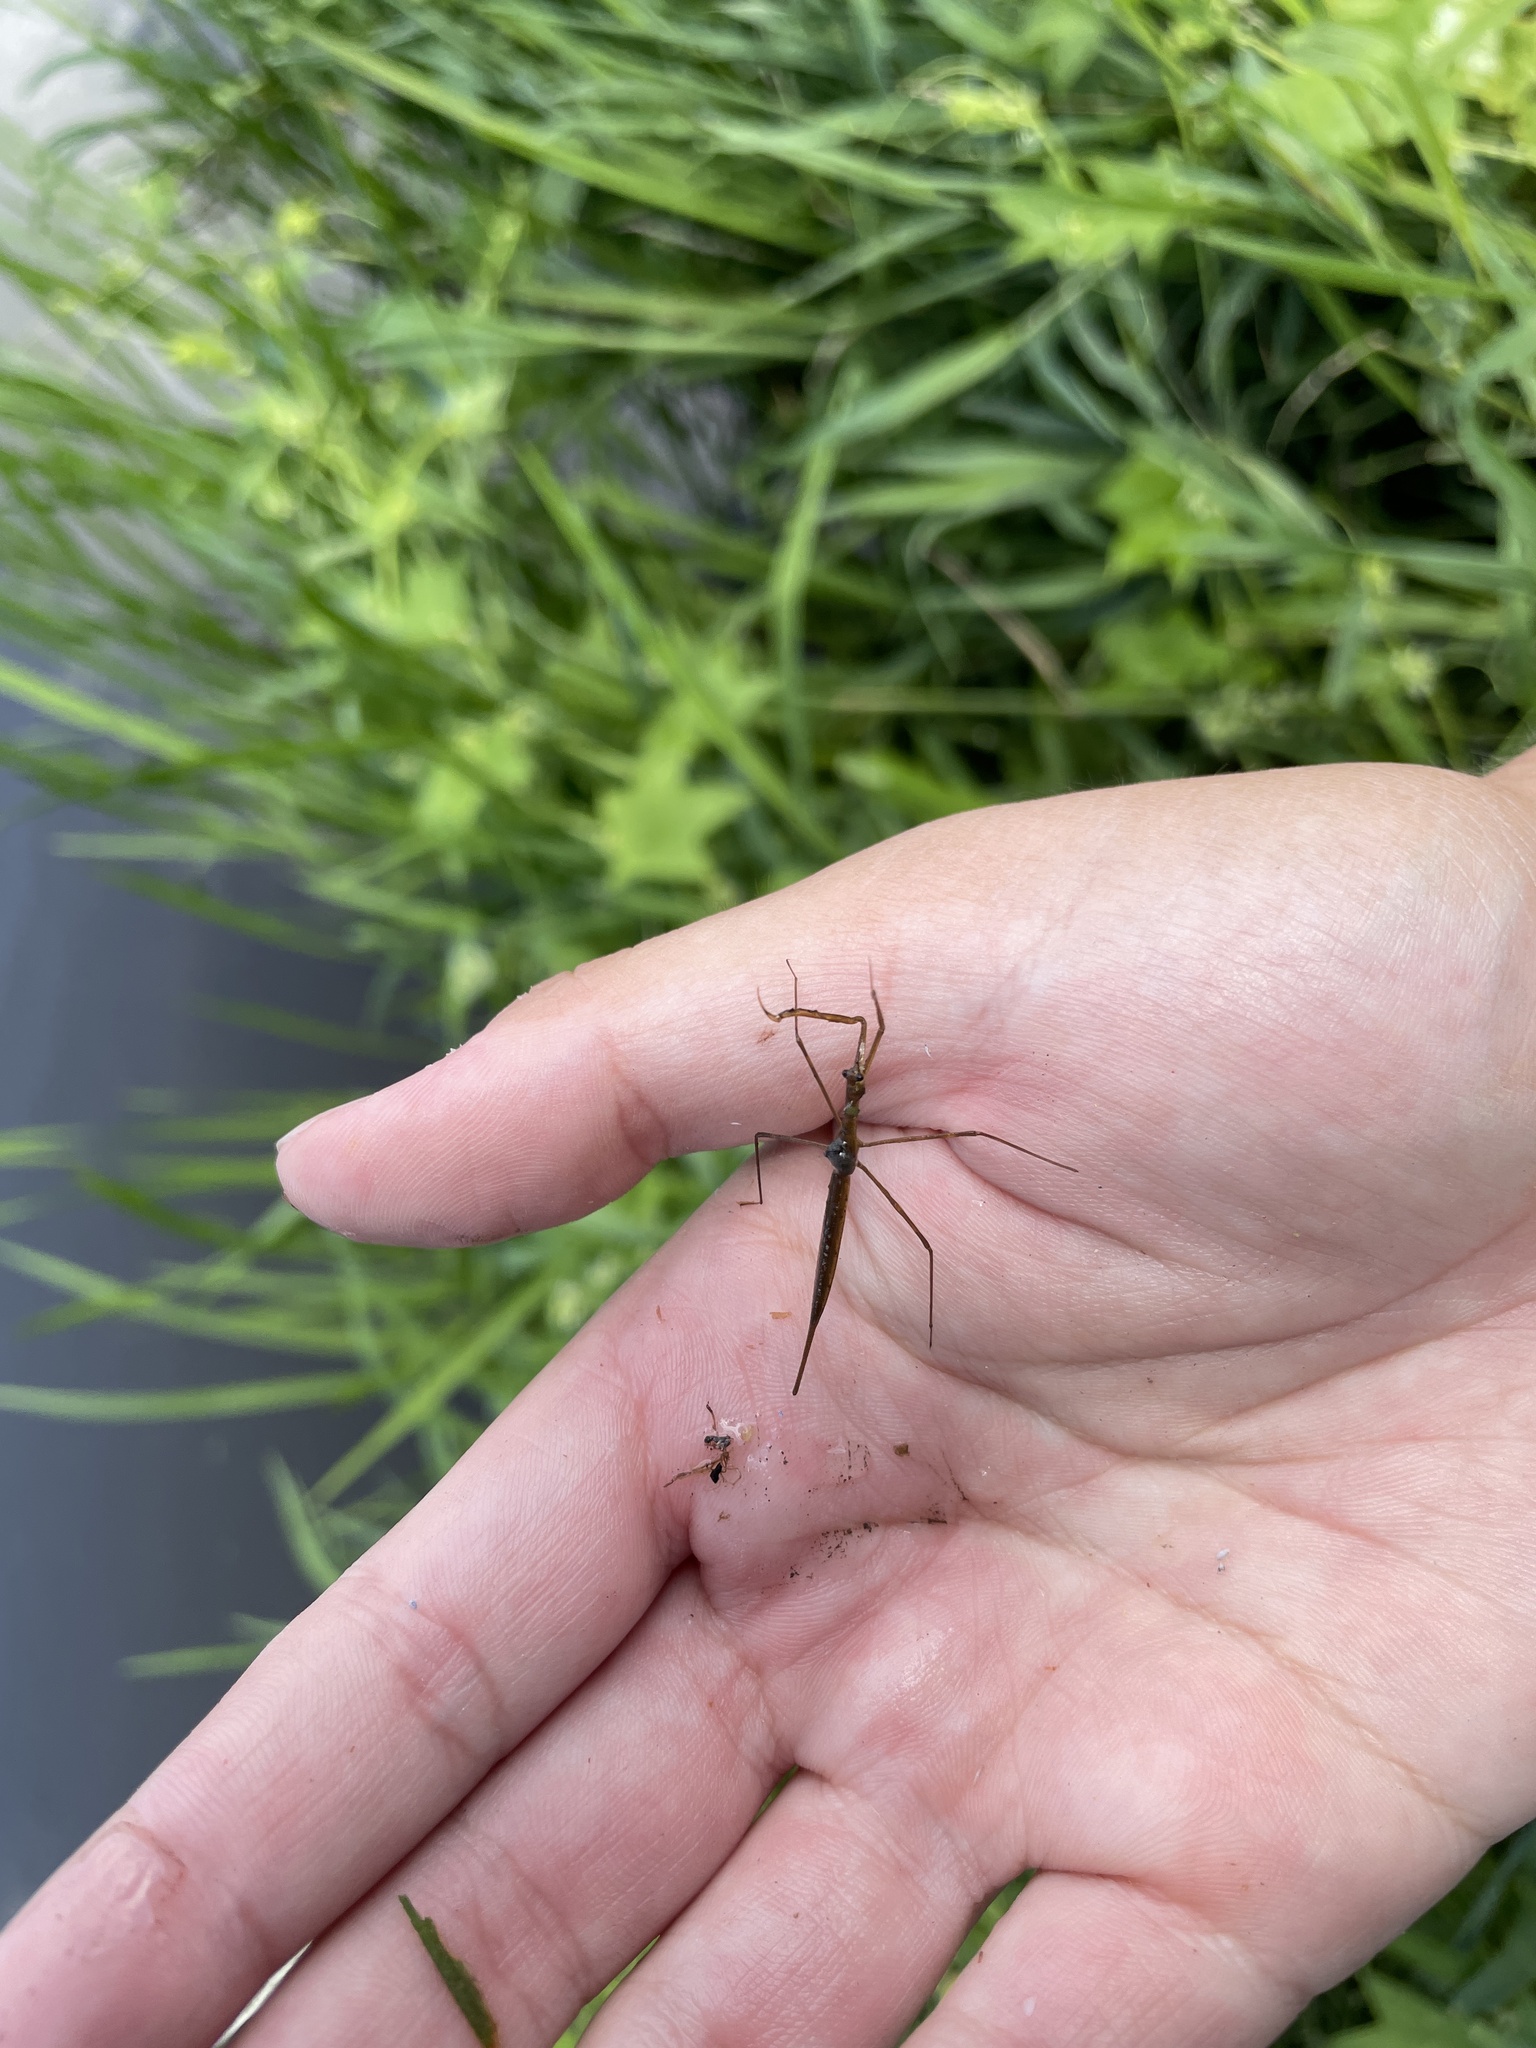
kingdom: Animalia
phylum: Arthropoda
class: Insecta
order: Hemiptera
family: Nepidae
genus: Ranatra
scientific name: Ranatra
